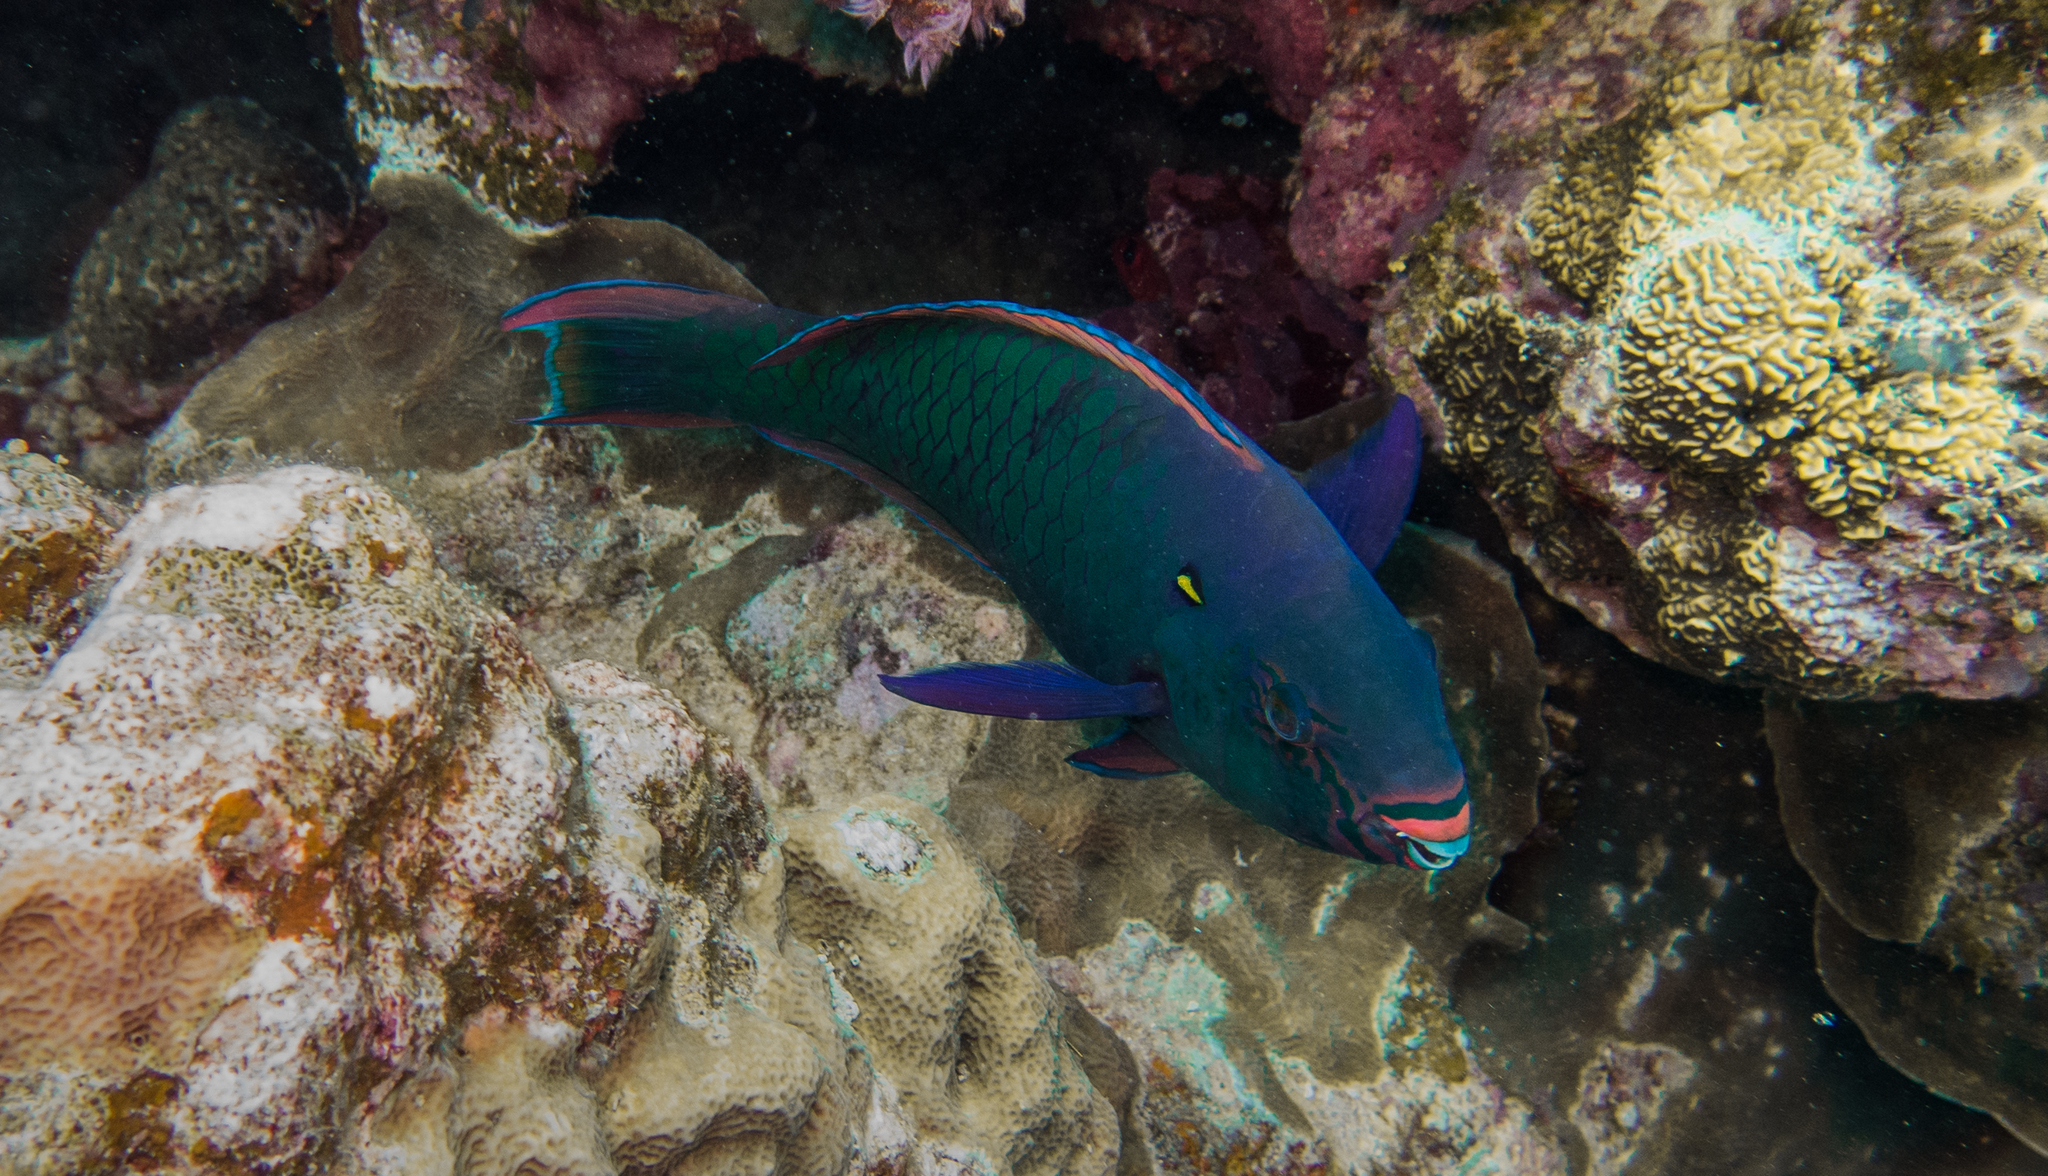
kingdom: Animalia
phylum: Chordata
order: Perciformes
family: Scaridae
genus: Scarus
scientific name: Scarus niger
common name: Dusky parrotfish
